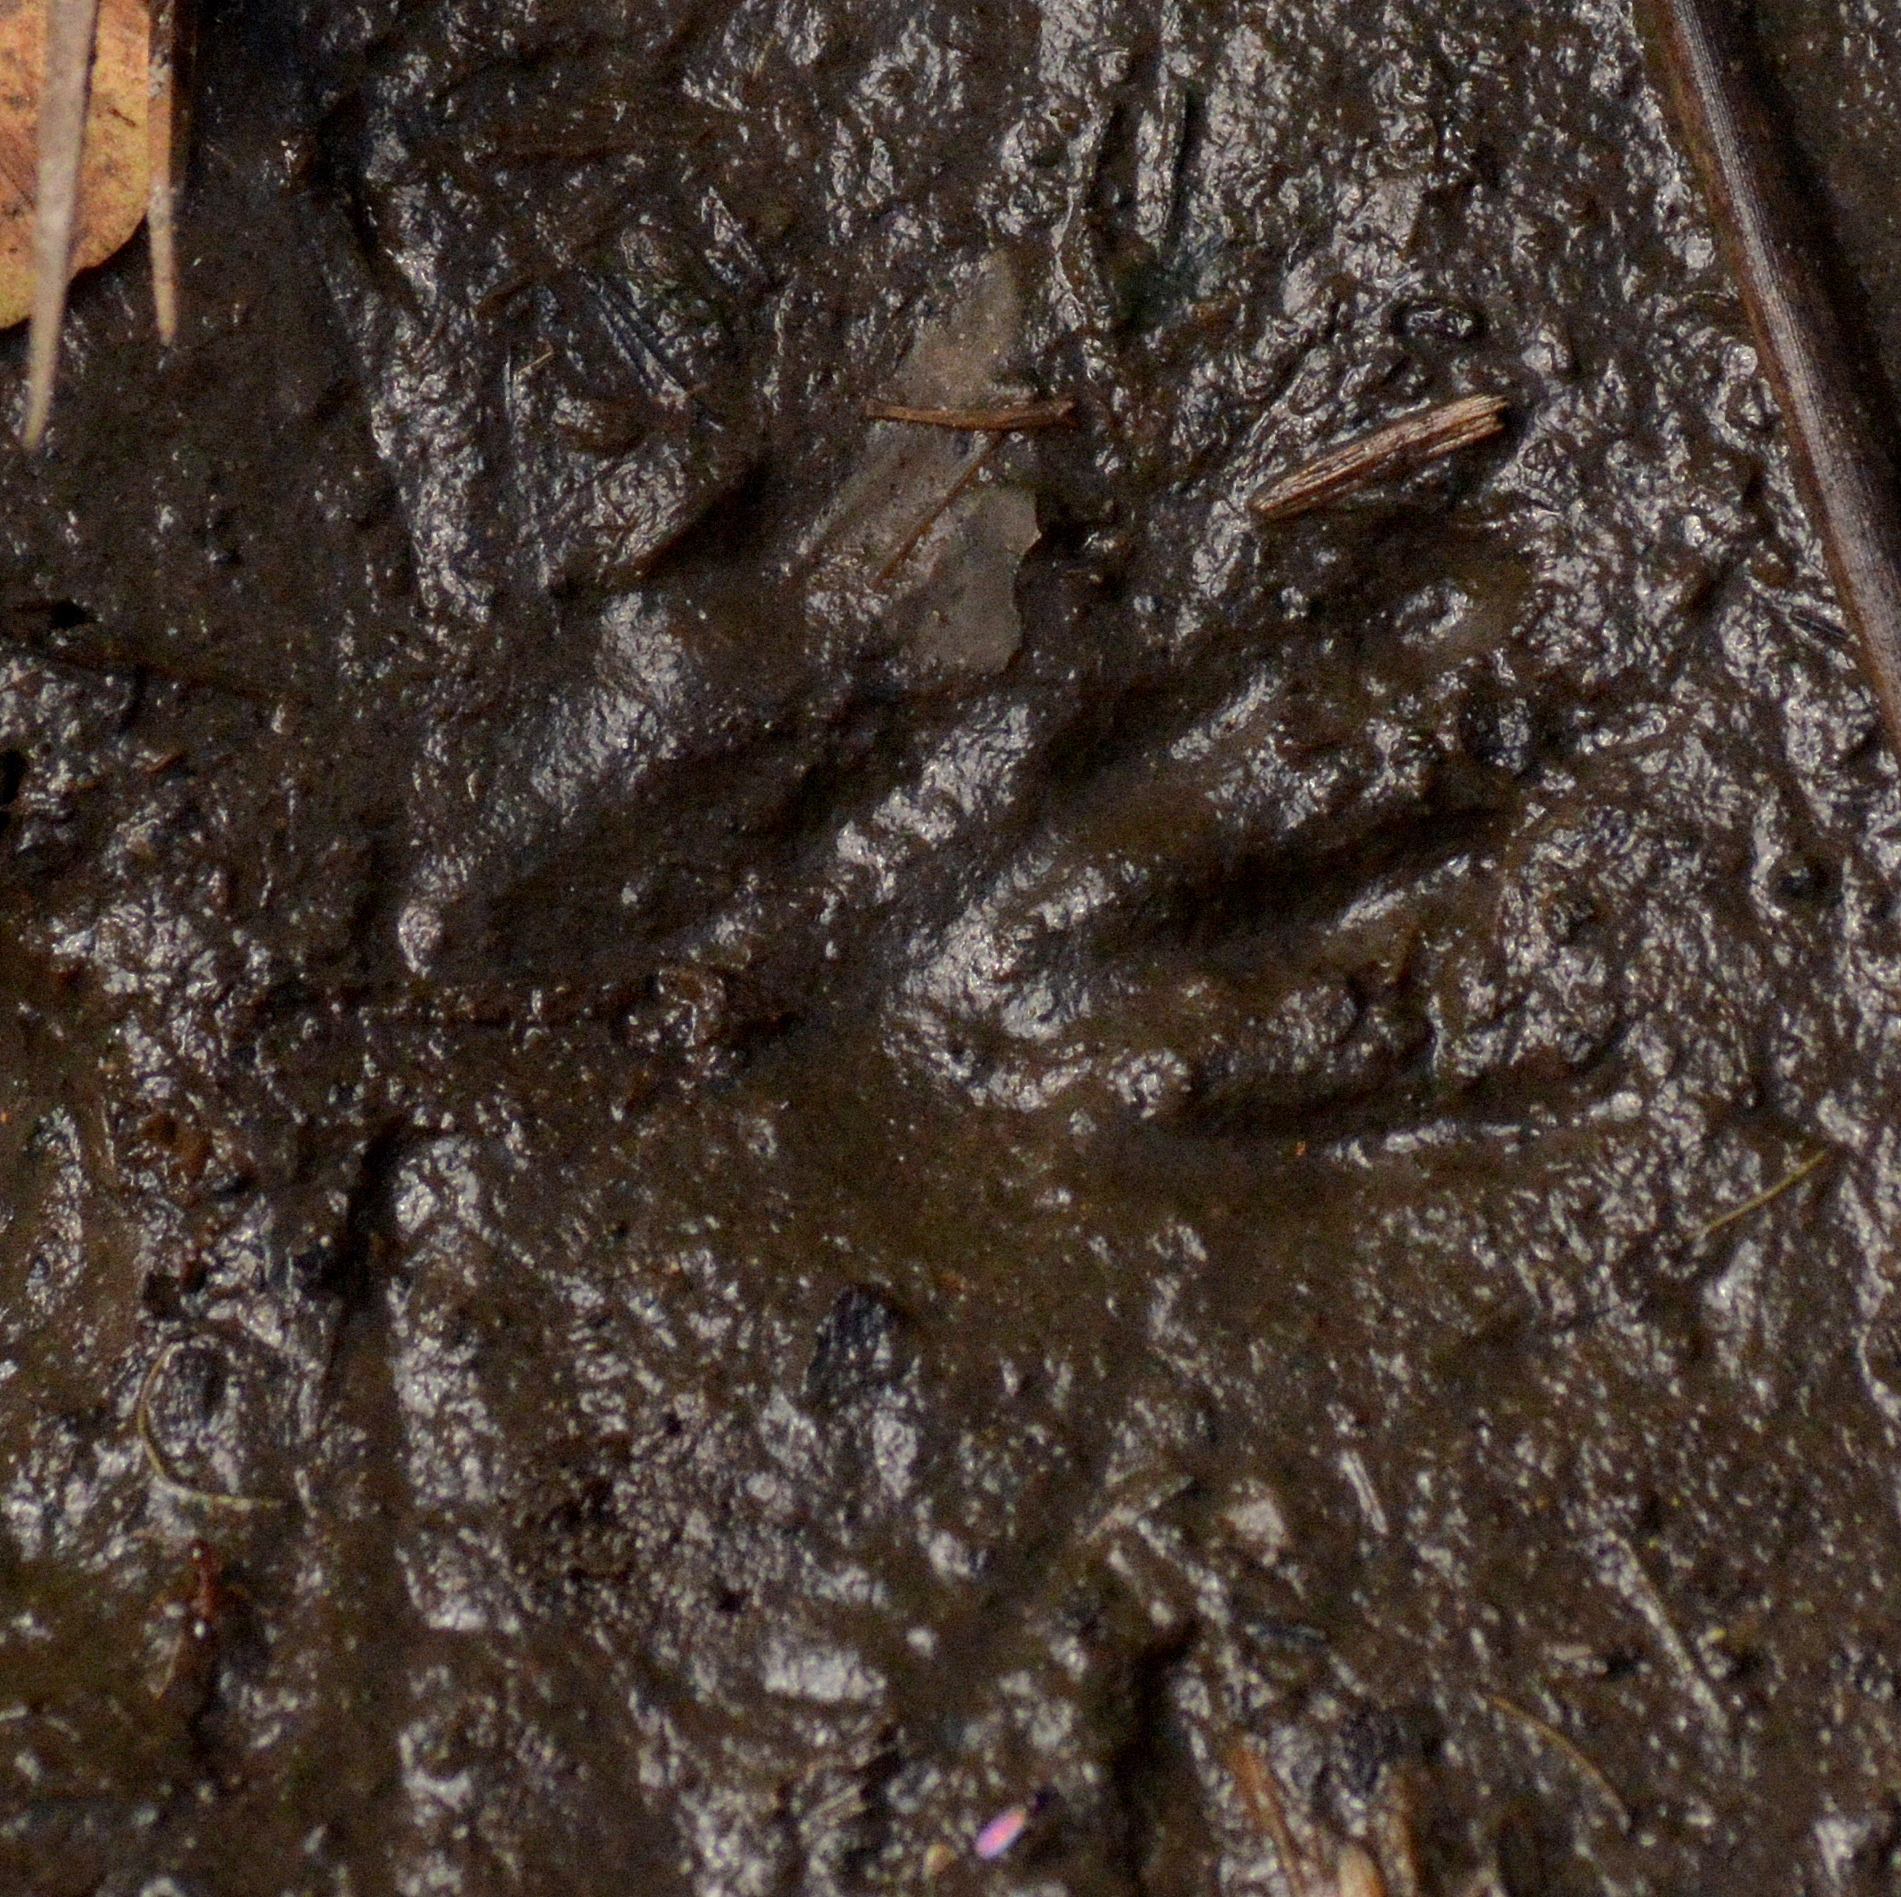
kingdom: Animalia
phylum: Chordata
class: Mammalia
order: Rodentia
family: Myocastoridae
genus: Myocastor
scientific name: Myocastor coypus
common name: Coypu
